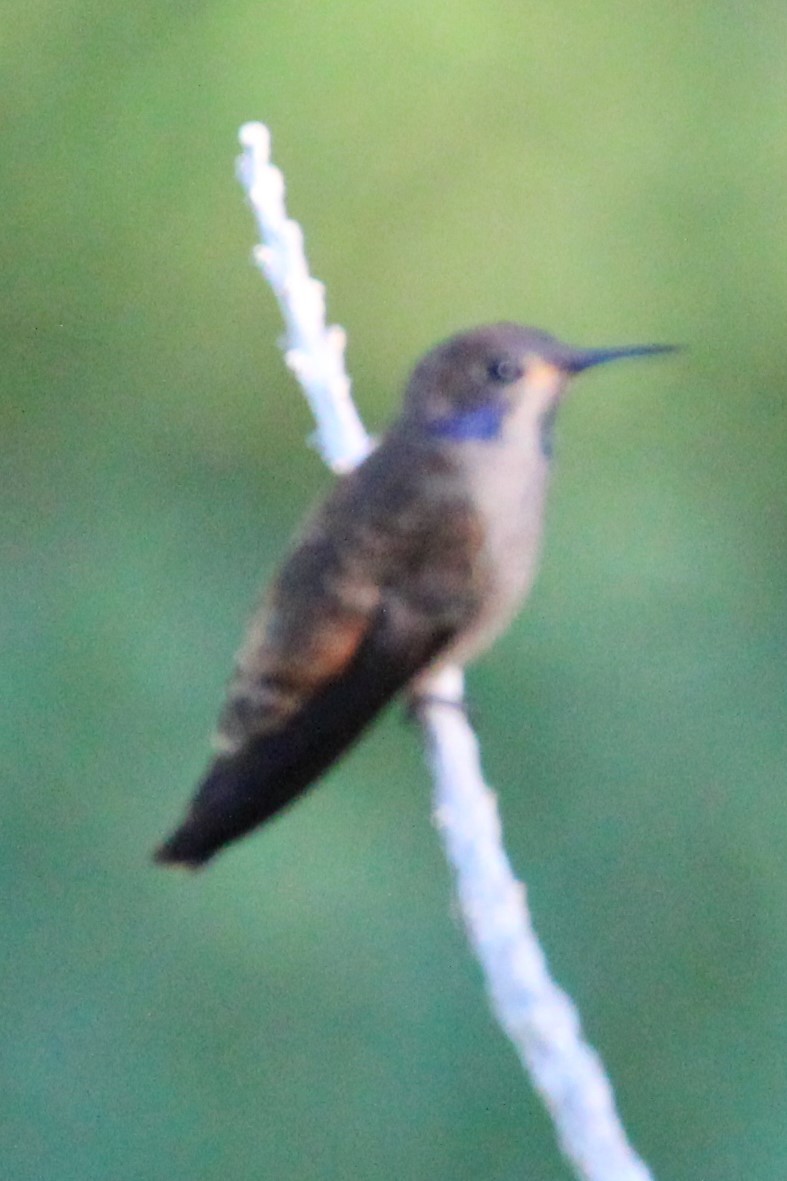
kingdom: Animalia
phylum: Chordata
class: Aves
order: Apodiformes
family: Trochilidae
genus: Colibri
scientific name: Colibri delphinae
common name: Brown violetear
